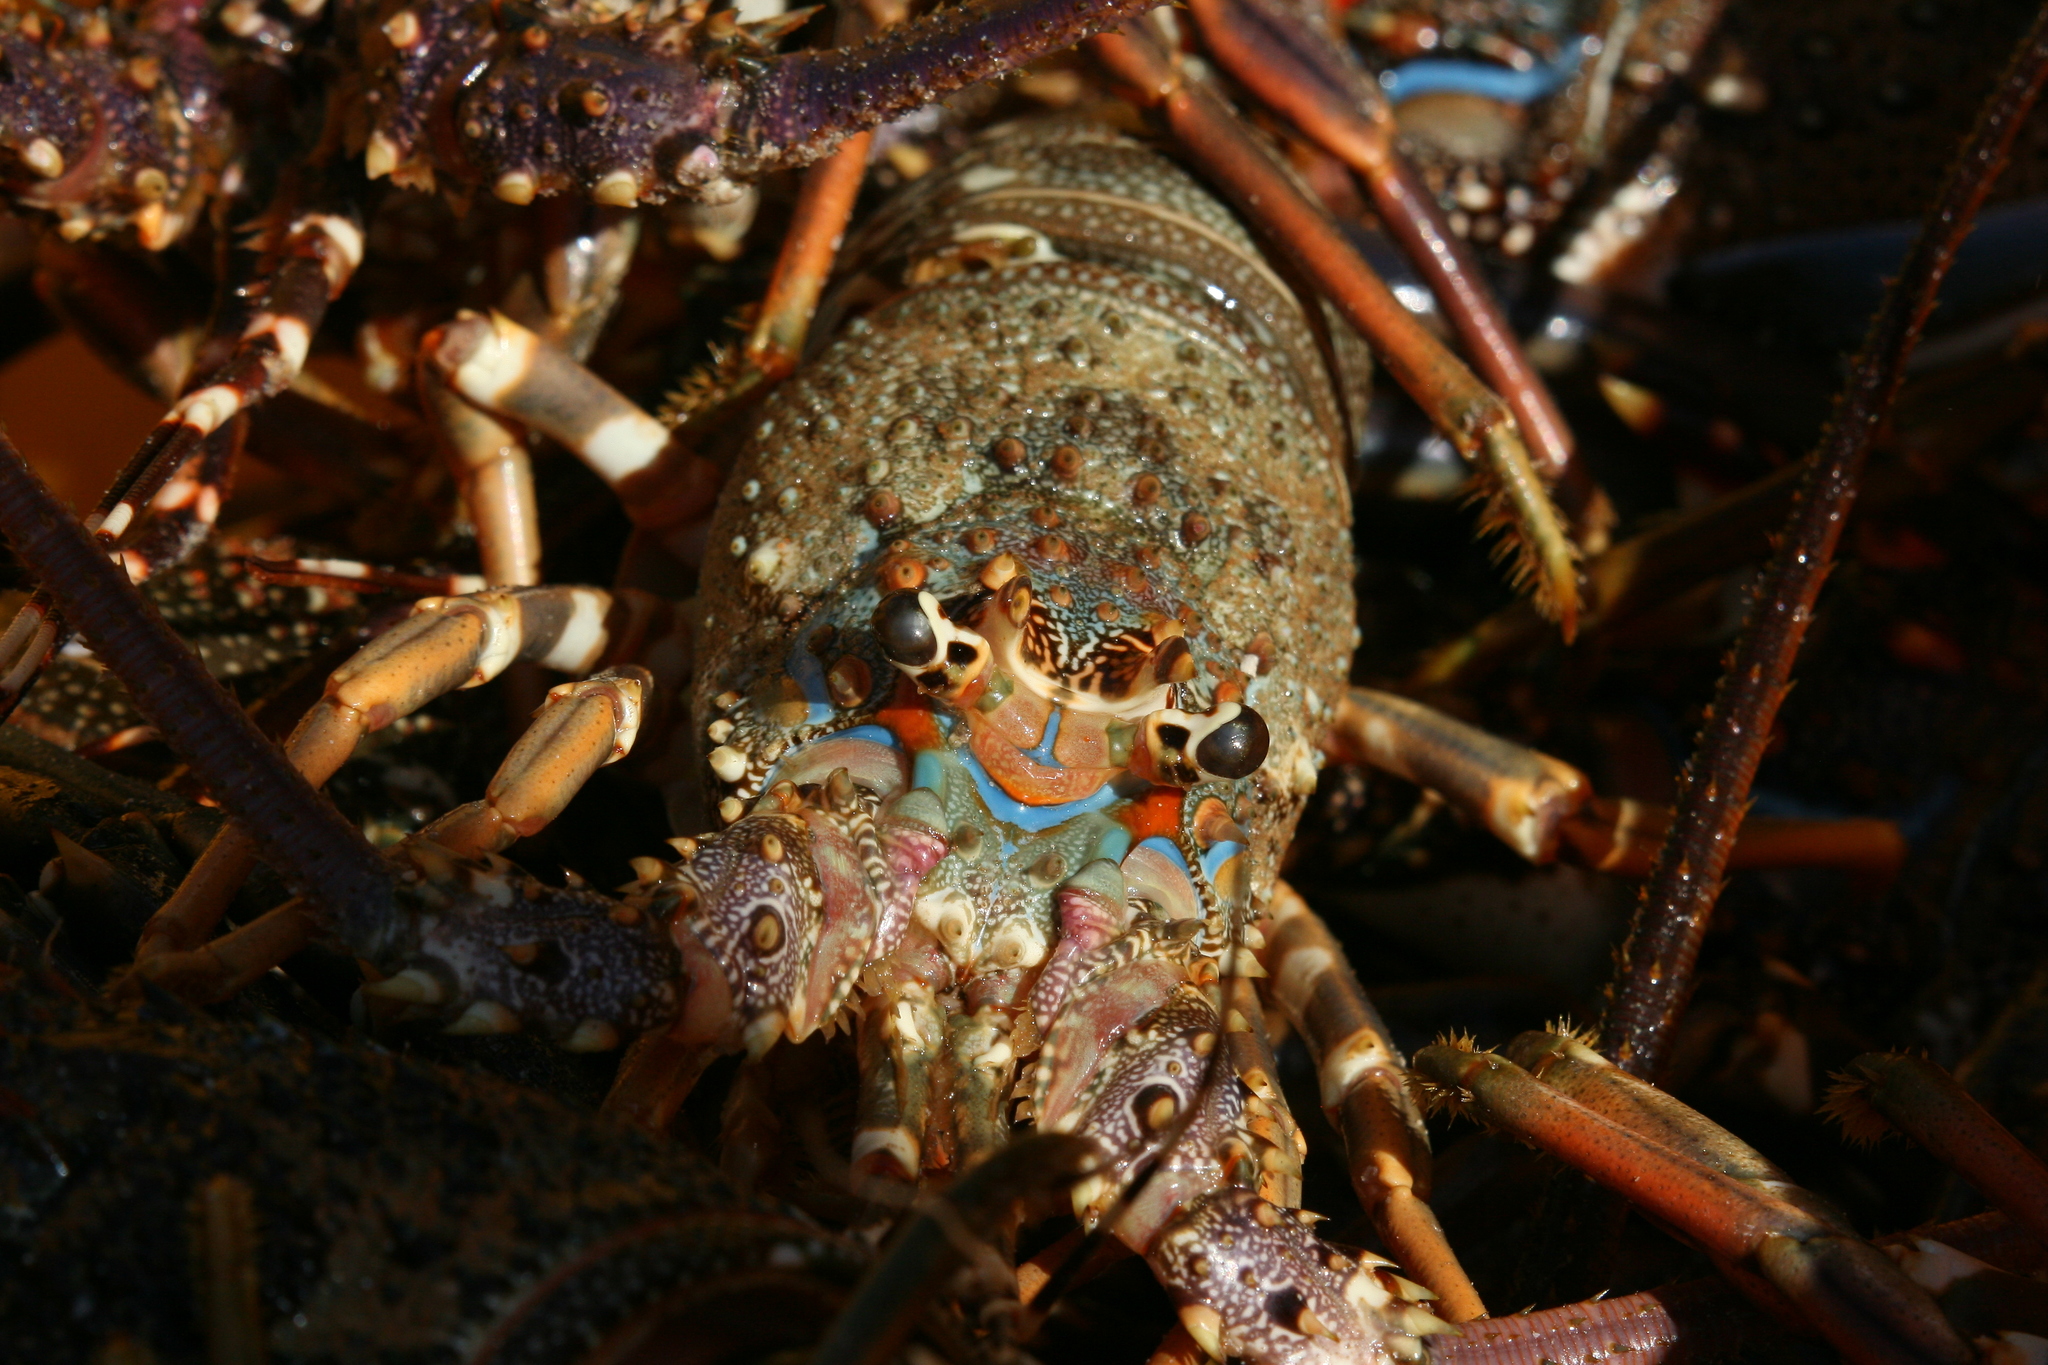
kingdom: Animalia
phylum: Arthropoda
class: Malacostraca
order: Decapoda
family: Palinuridae
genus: Panulirus
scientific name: Panulirus homarus
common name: Scalloped spiny lobster
